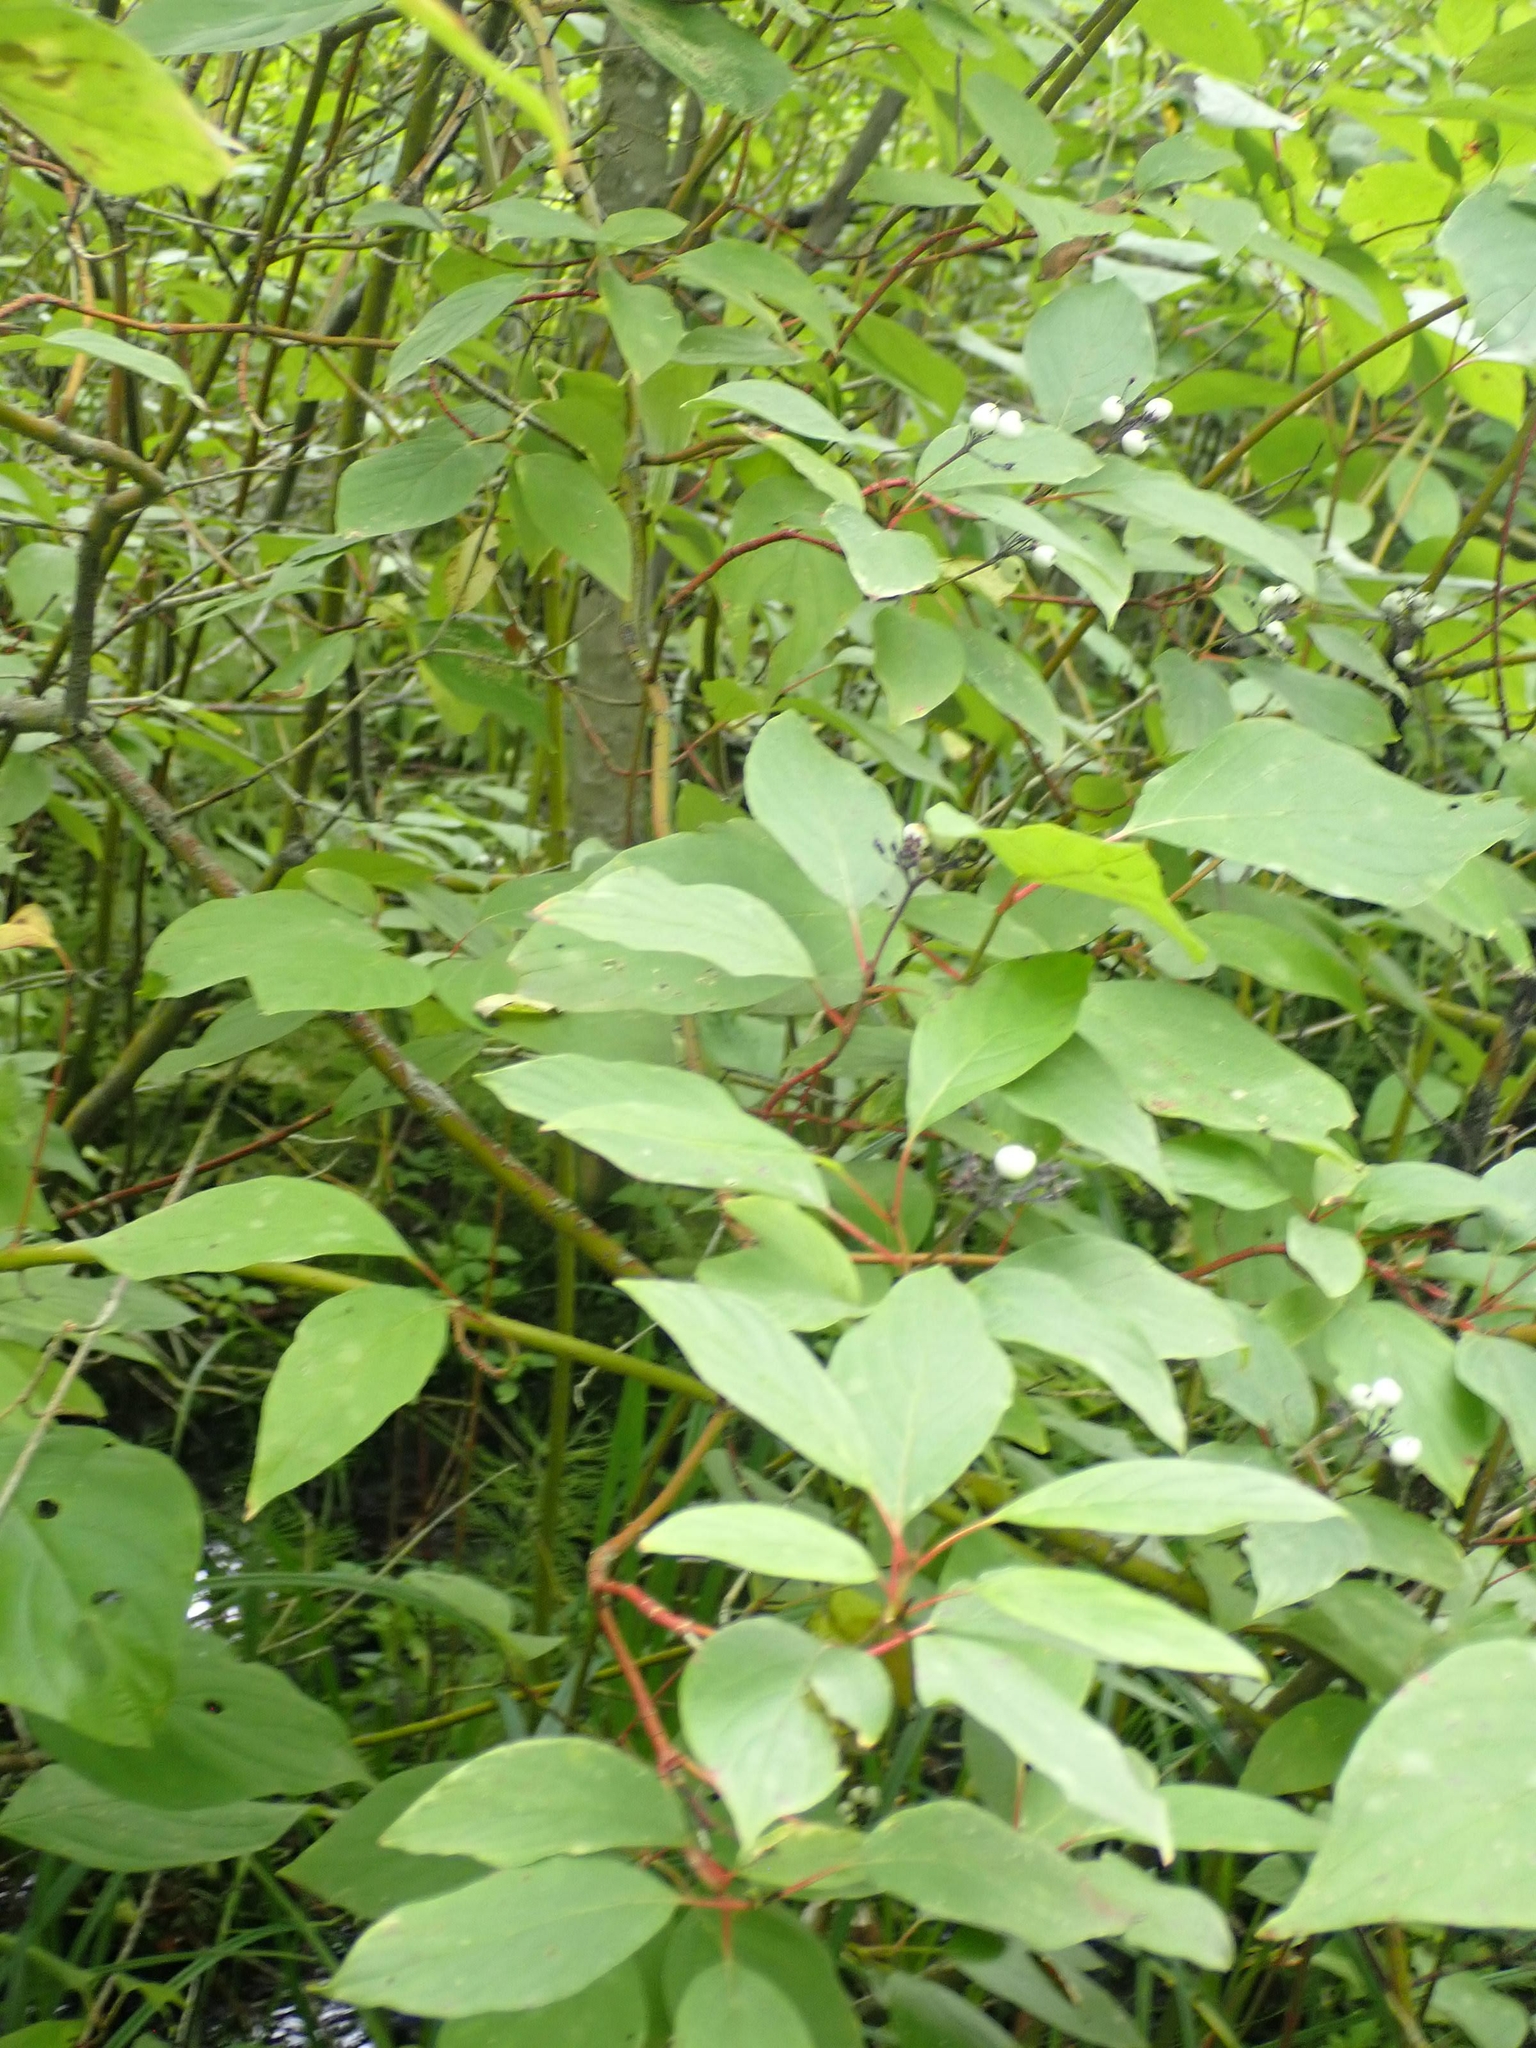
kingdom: Plantae
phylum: Tracheophyta
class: Magnoliopsida
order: Cornales
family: Cornaceae
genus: Cornus
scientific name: Cornus sericea
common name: Red-osier dogwood
